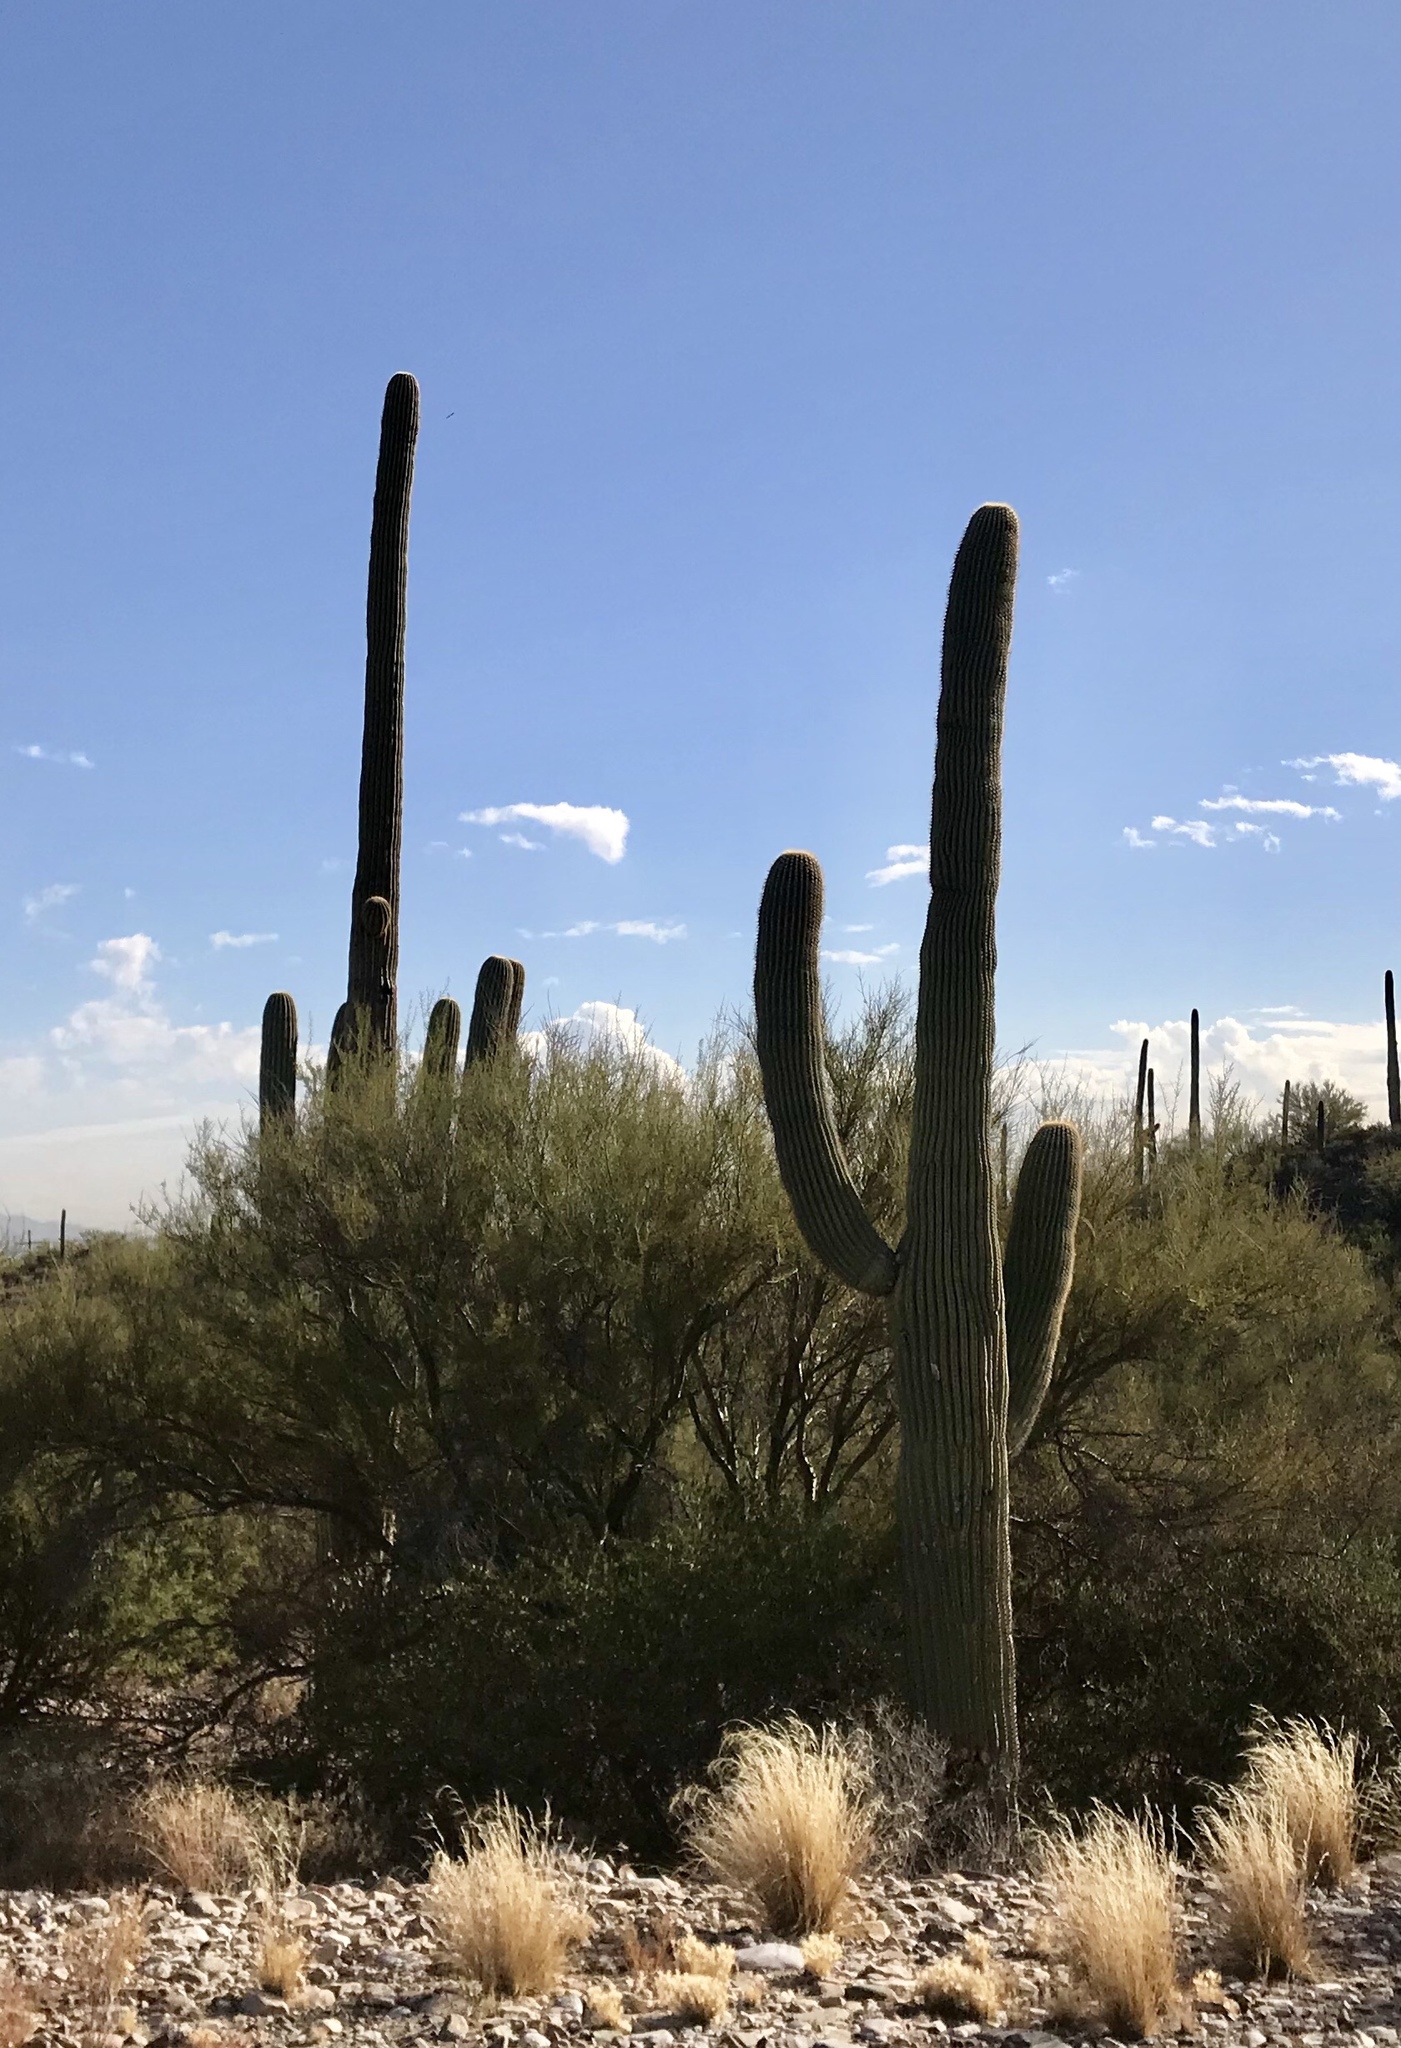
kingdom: Plantae
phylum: Tracheophyta
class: Magnoliopsida
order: Caryophyllales
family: Cactaceae
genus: Carnegiea
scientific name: Carnegiea gigantea
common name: Saguaro
